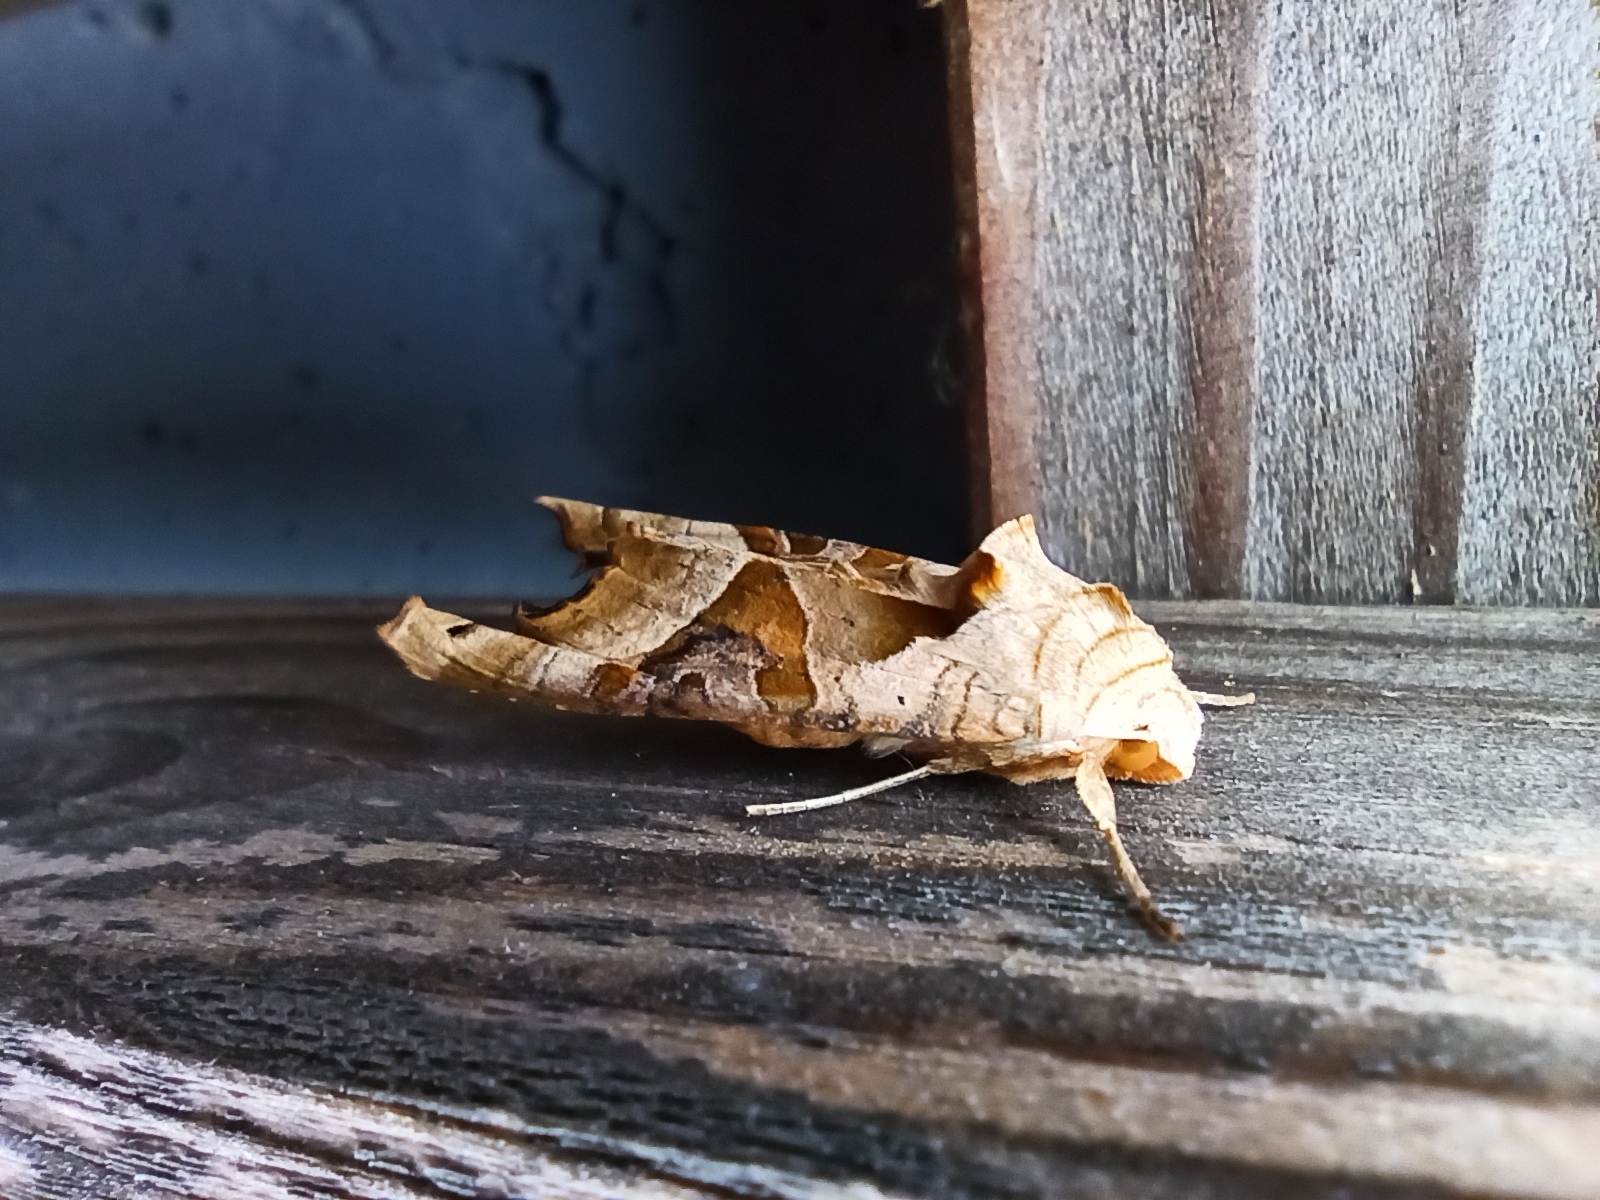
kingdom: Animalia
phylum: Arthropoda
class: Insecta
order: Lepidoptera
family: Noctuidae
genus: Phlogophora
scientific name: Phlogophora meticulosa
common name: Angle shades
